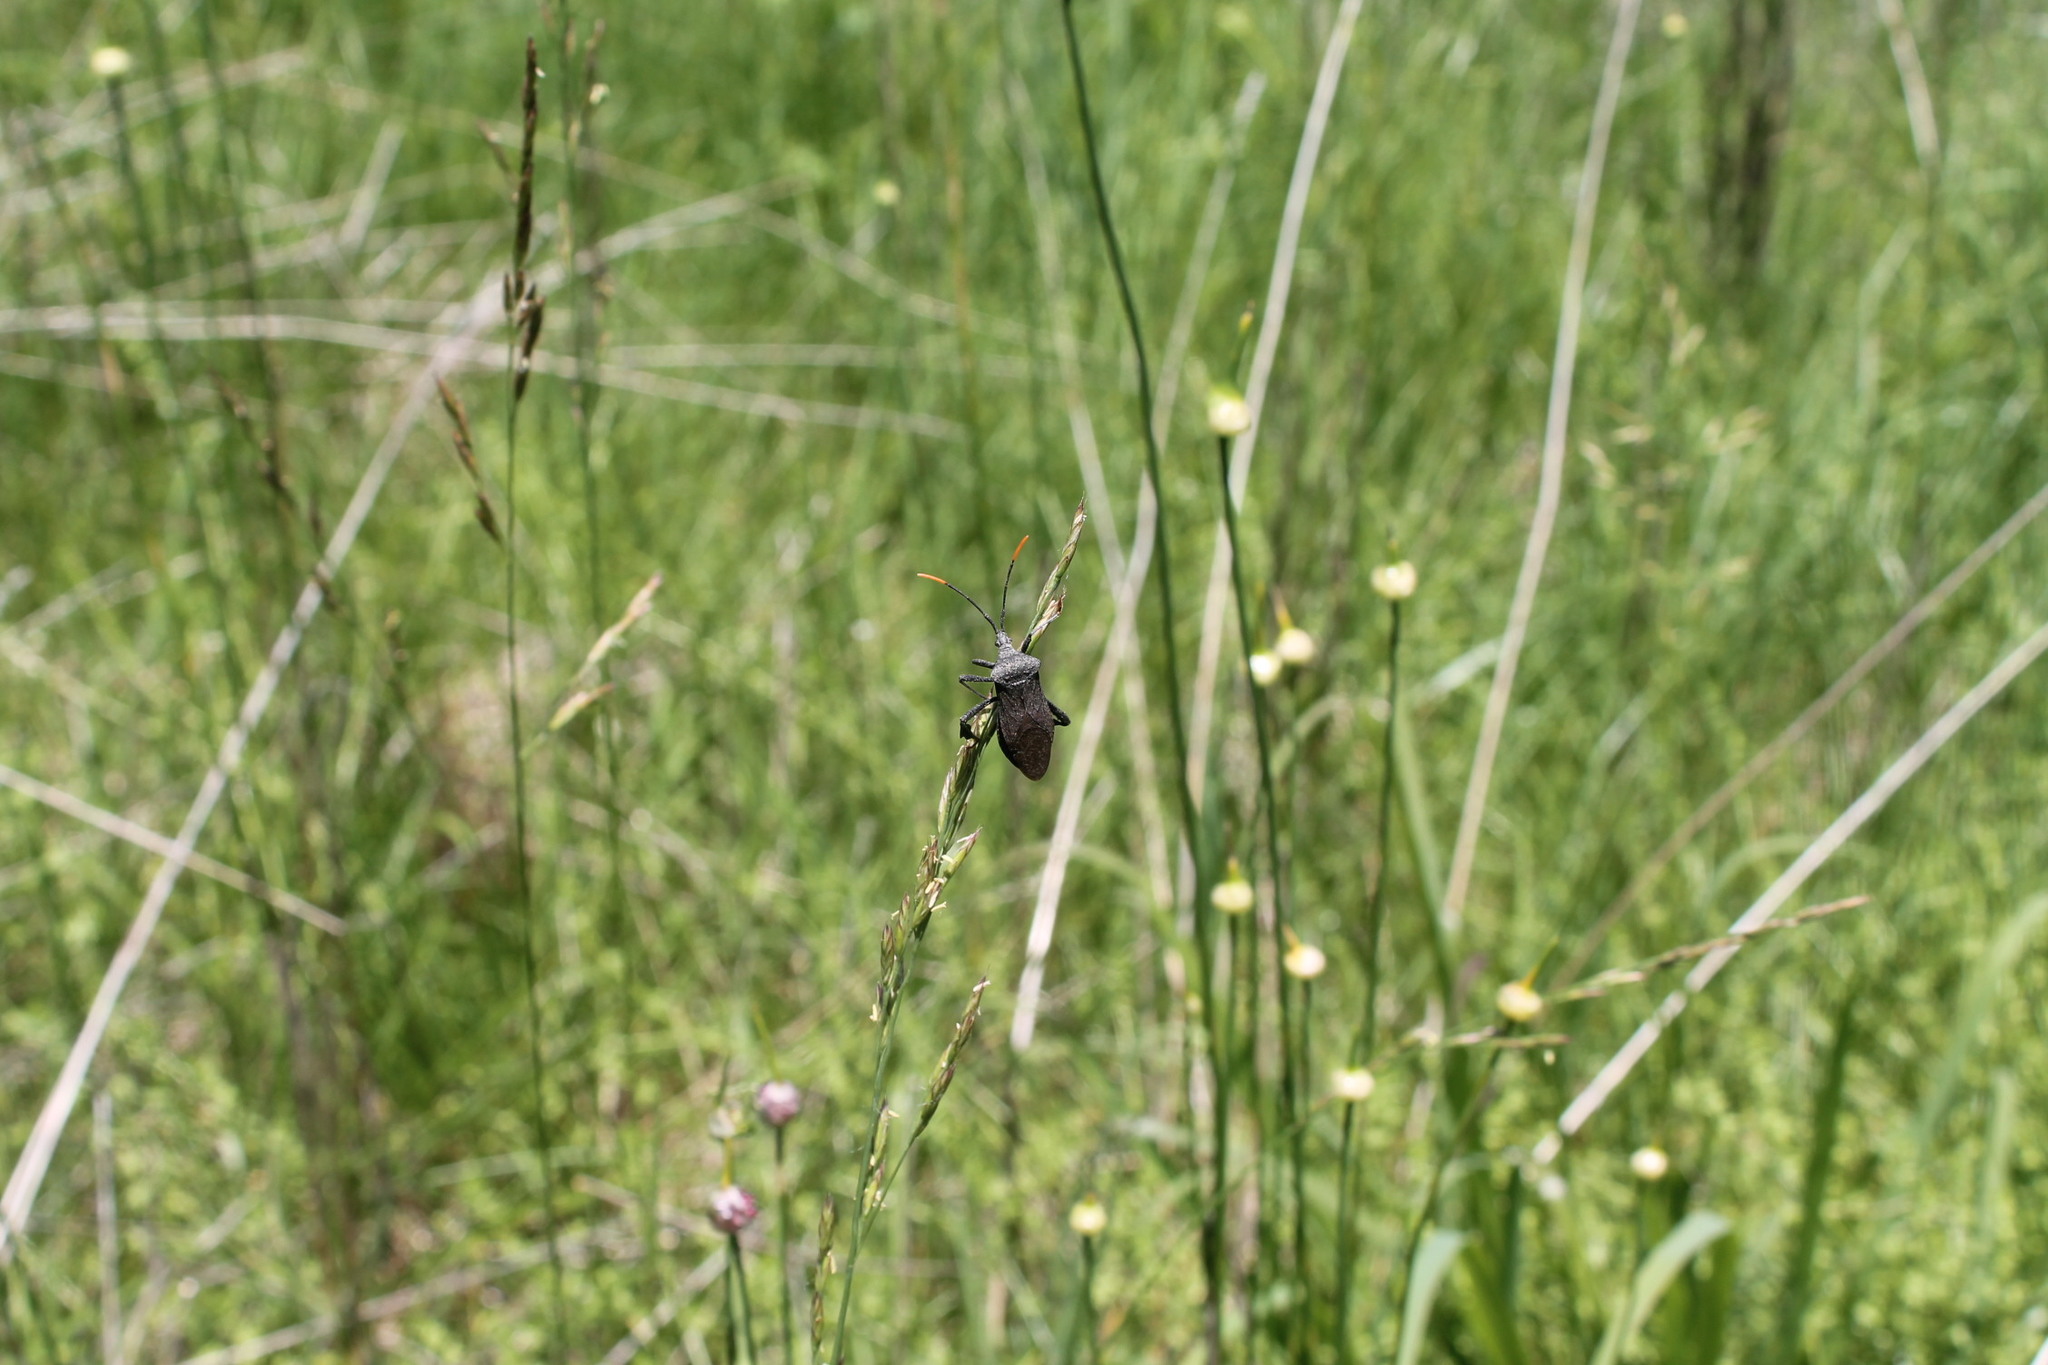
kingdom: Animalia
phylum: Arthropoda
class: Insecta
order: Hemiptera
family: Coreidae
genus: Acanthocephala
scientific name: Acanthocephala terminalis
